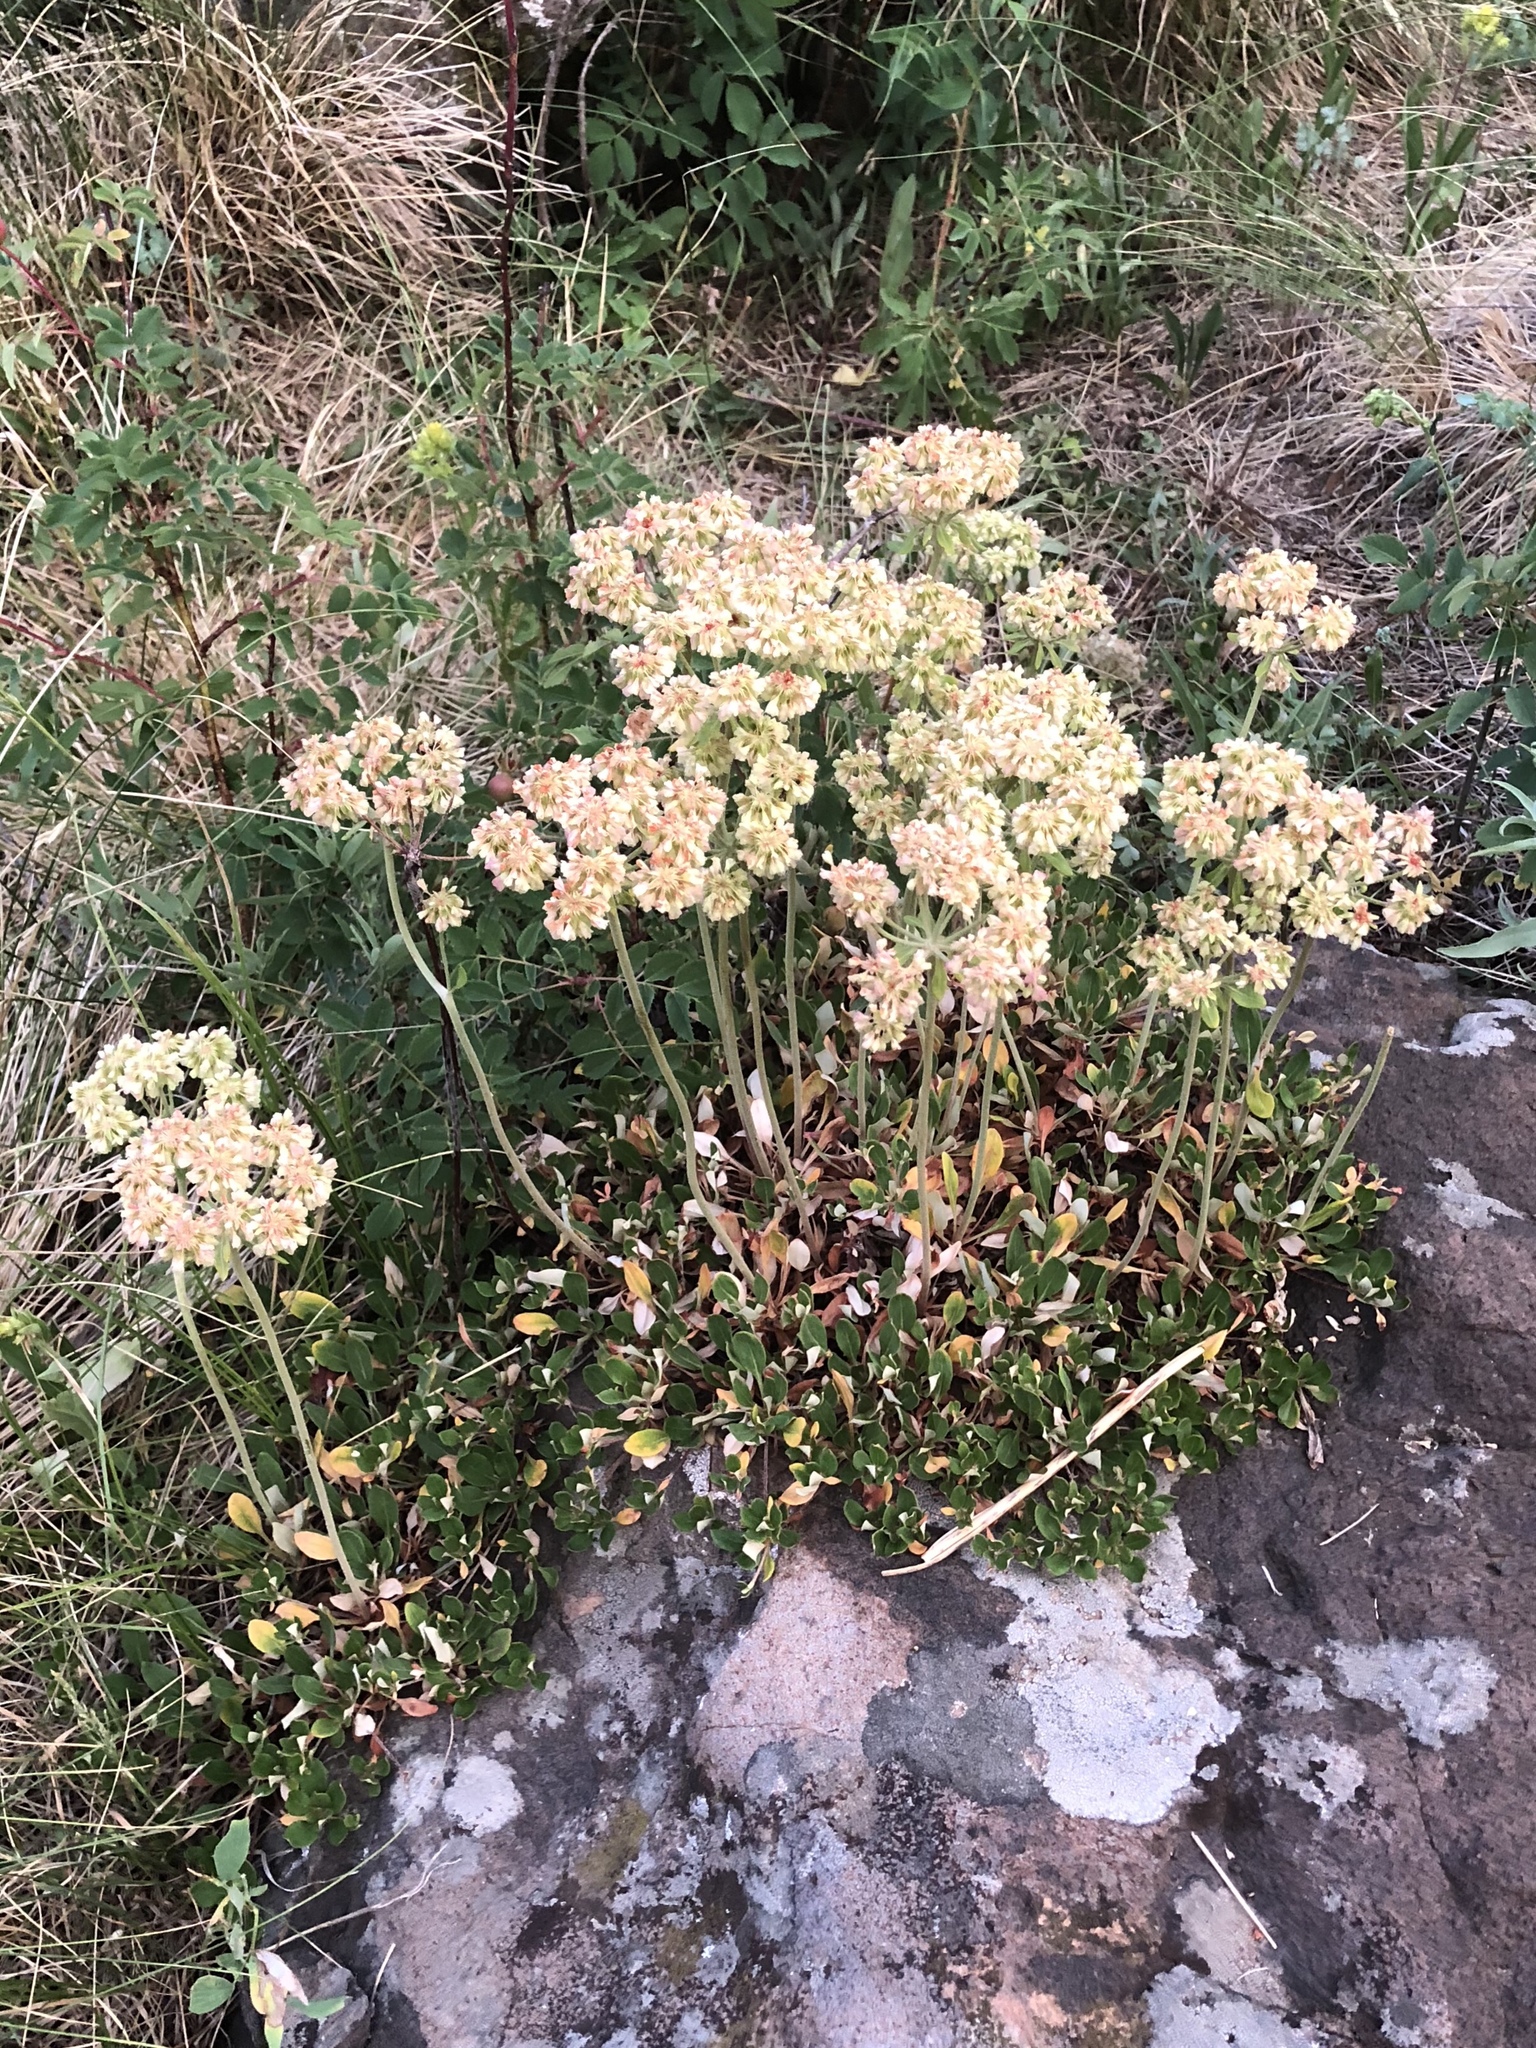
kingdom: Plantae
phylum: Tracheophyta
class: Magnoliopsida
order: Caryophyllales
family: Polygonaceae
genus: Eriogonum
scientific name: Eriogonum umbellatum
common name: Sulfur-buckwheat
